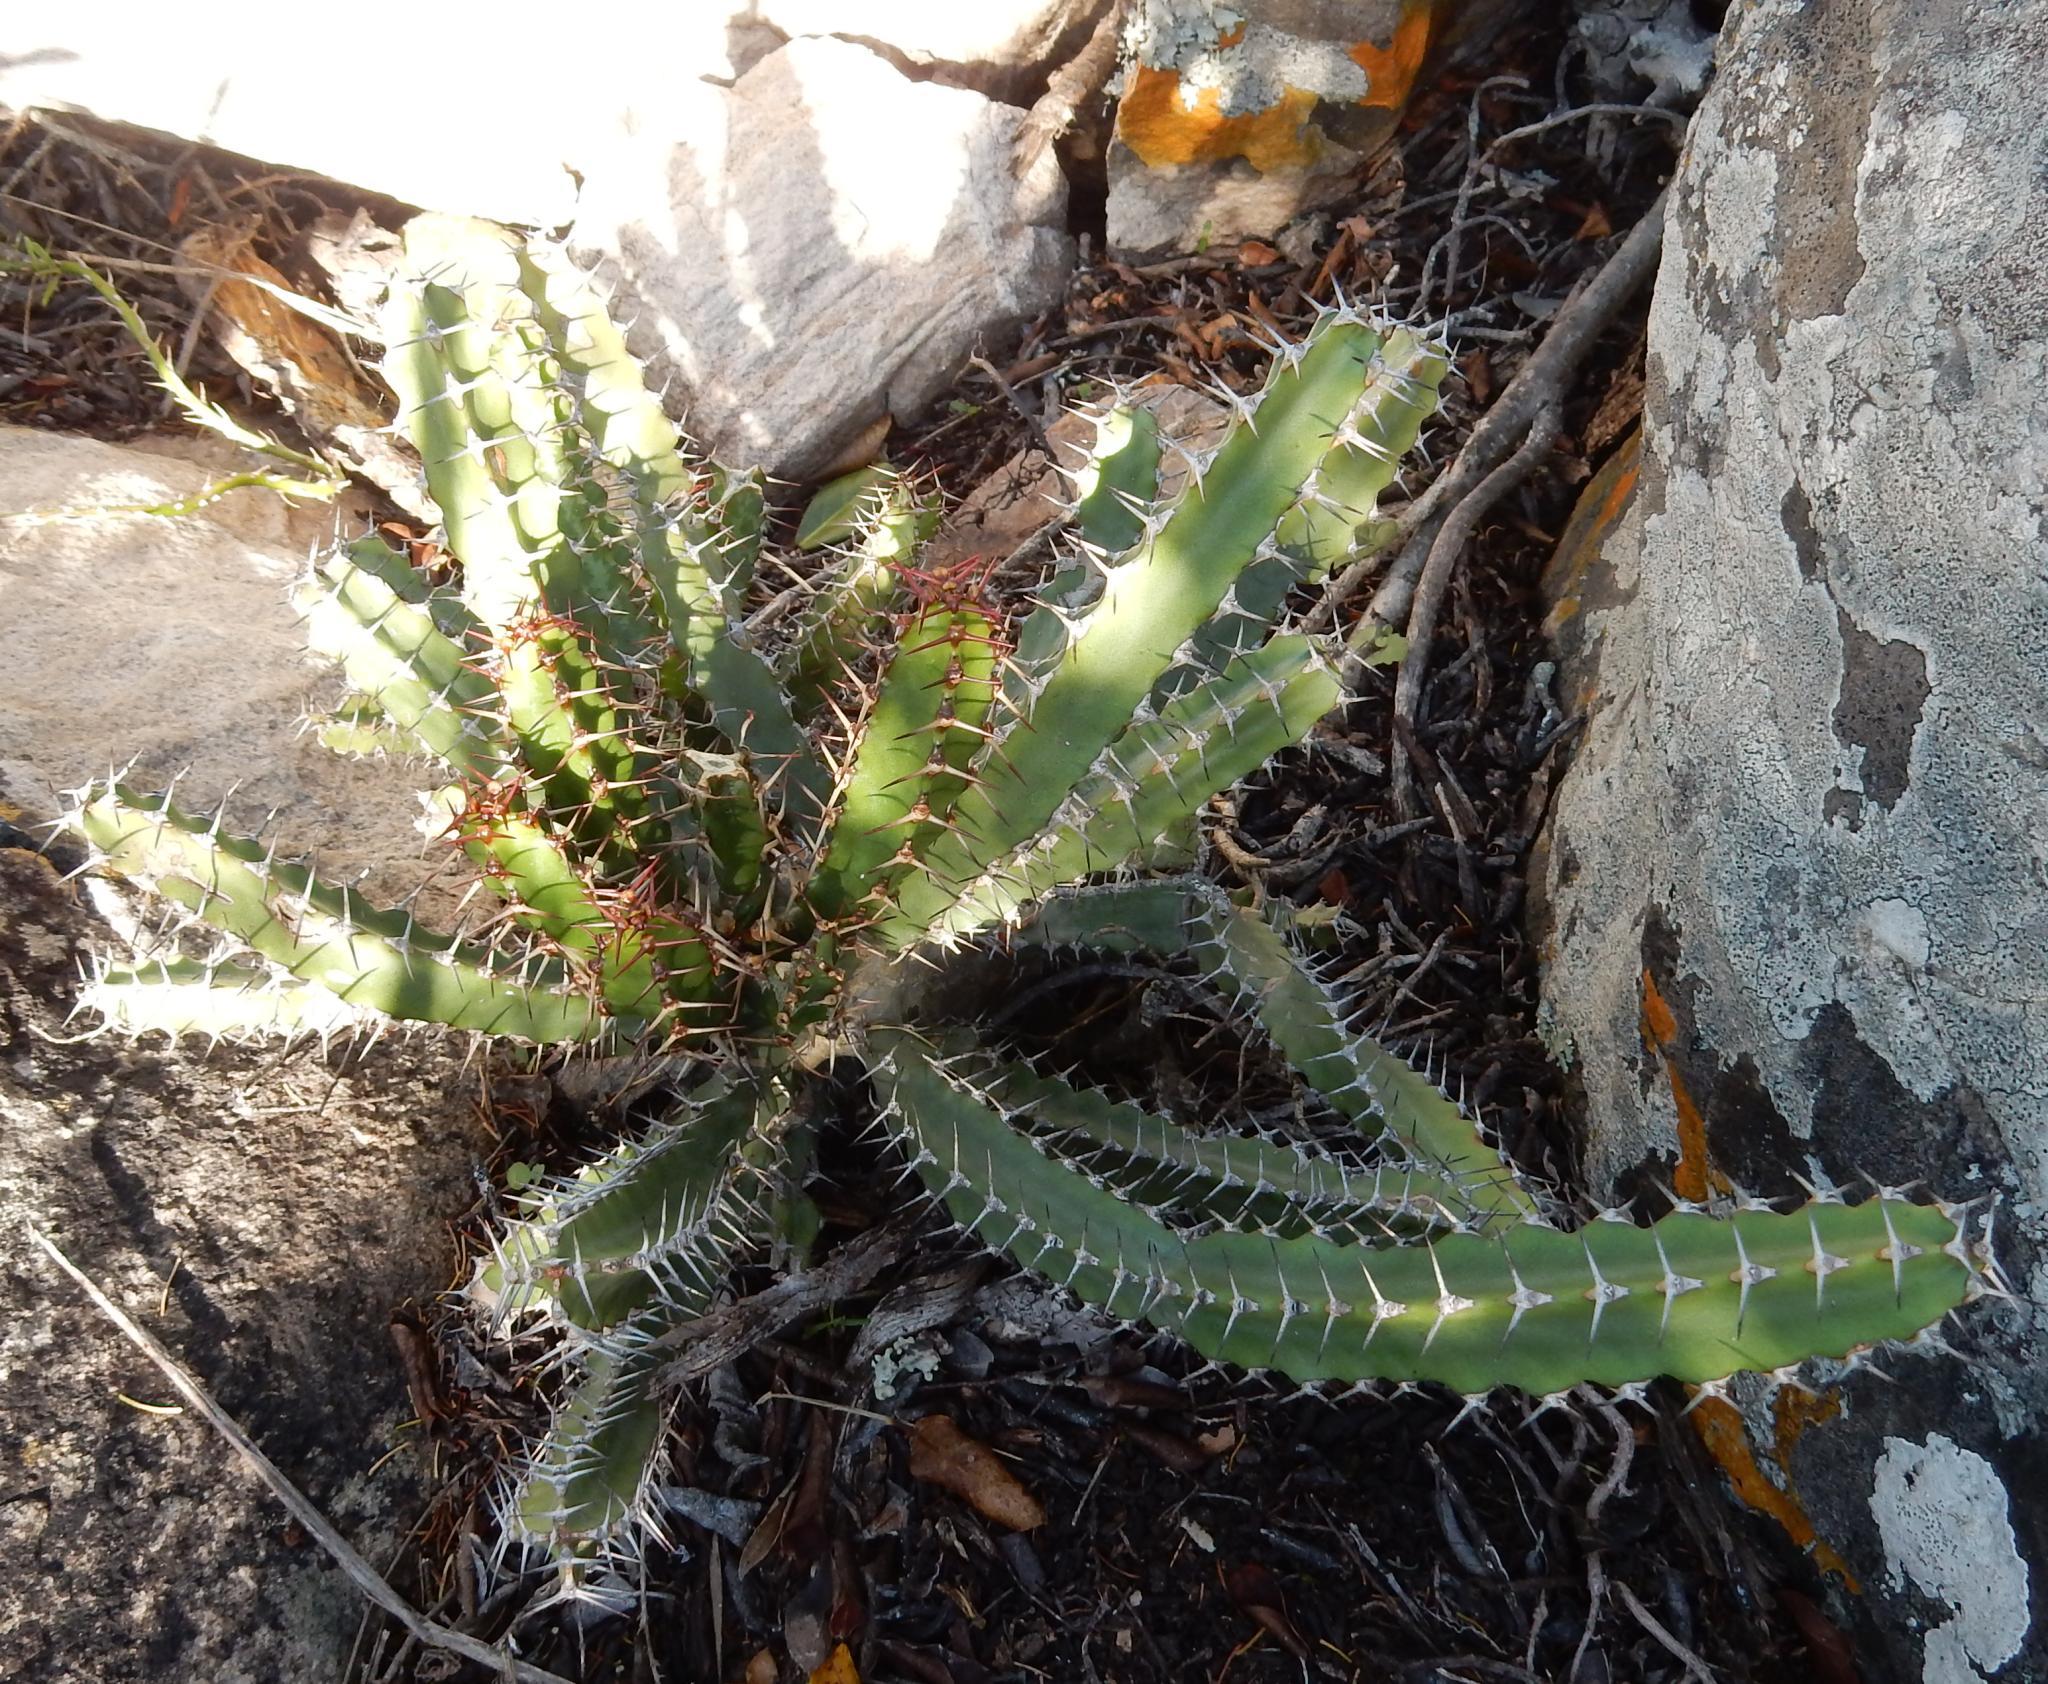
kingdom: Plantae
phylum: Tracheophyta
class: Magnoliopsida
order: Malpighiales
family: Euphorbiaceae
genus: Euphorbia
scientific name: Euphorbia caerulescens
